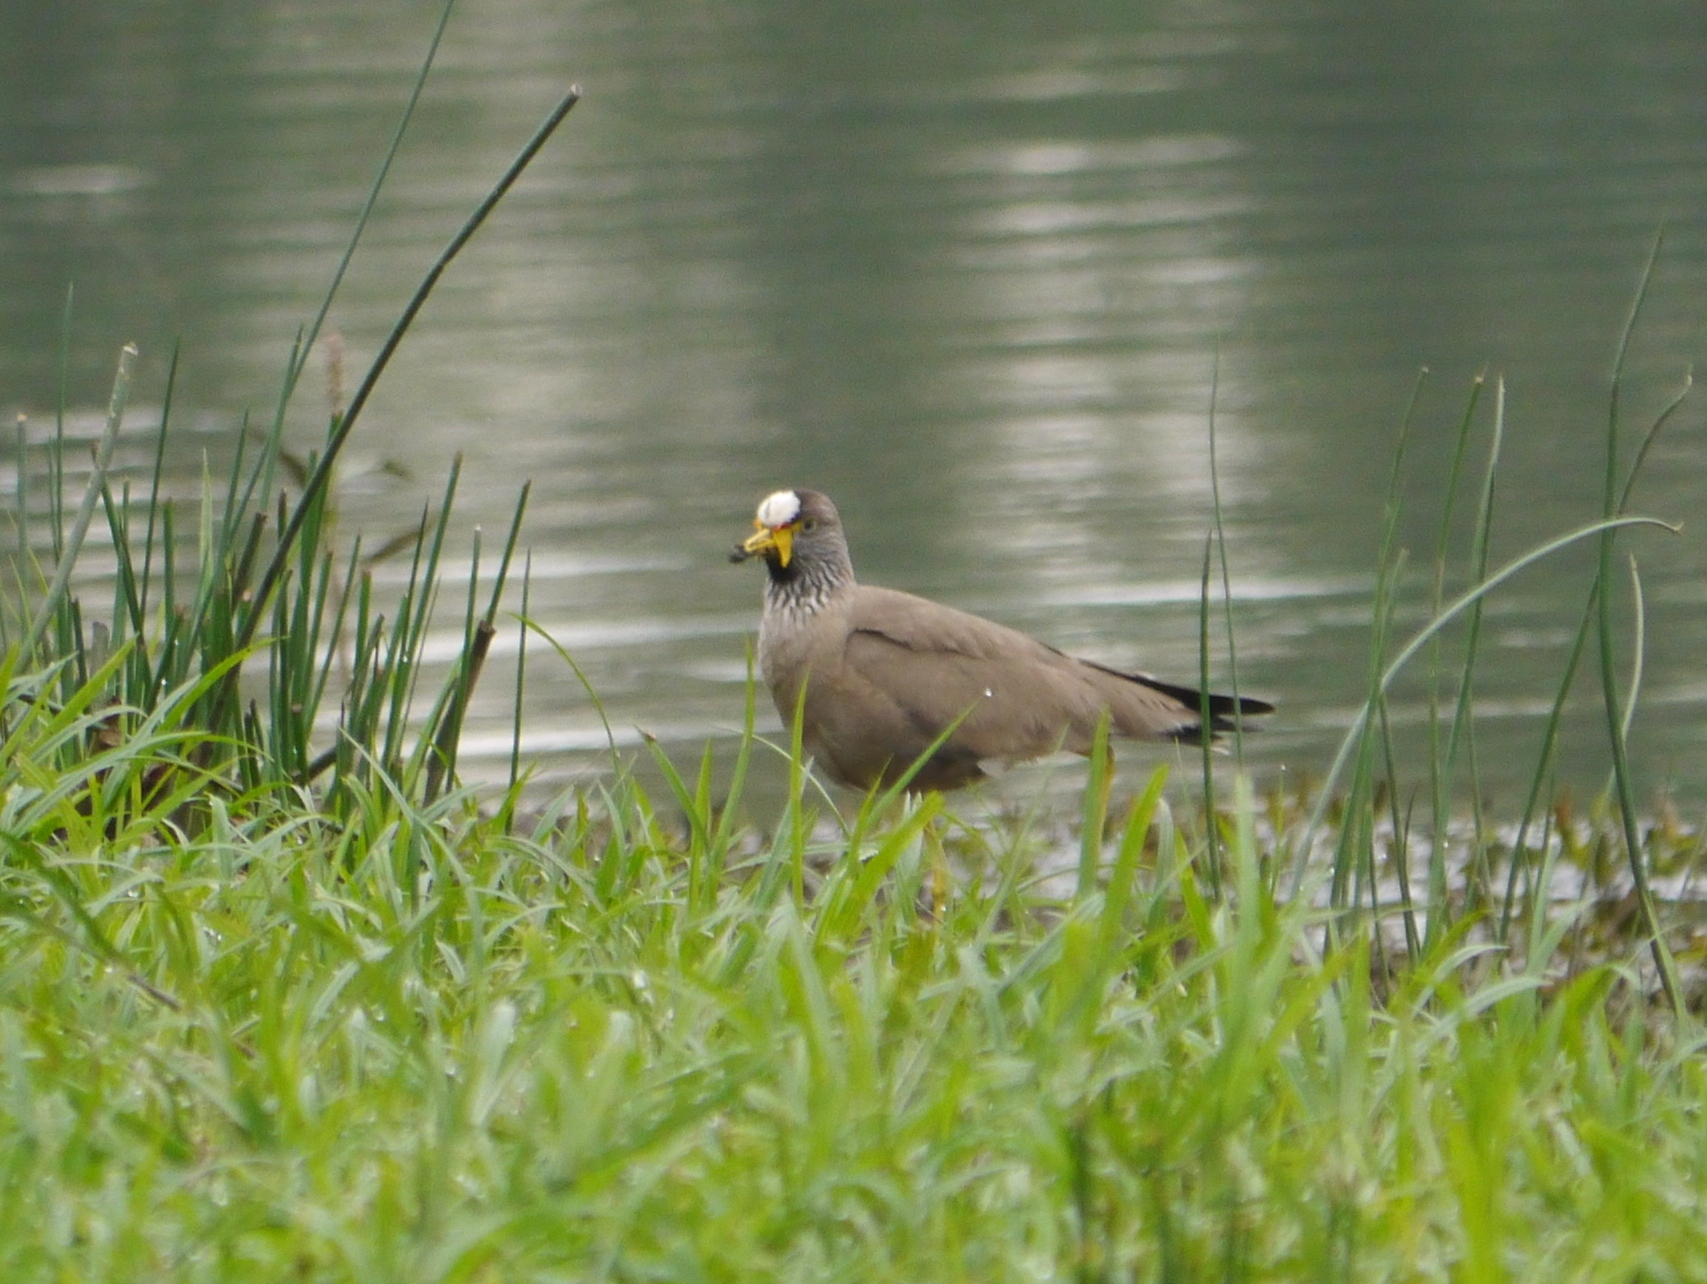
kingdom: Animalia
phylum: Chordata
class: Aves
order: Charadriiformes
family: Charadriidae
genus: Vanellus
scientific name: Vanellus senegallus
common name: African wattled lapwing
